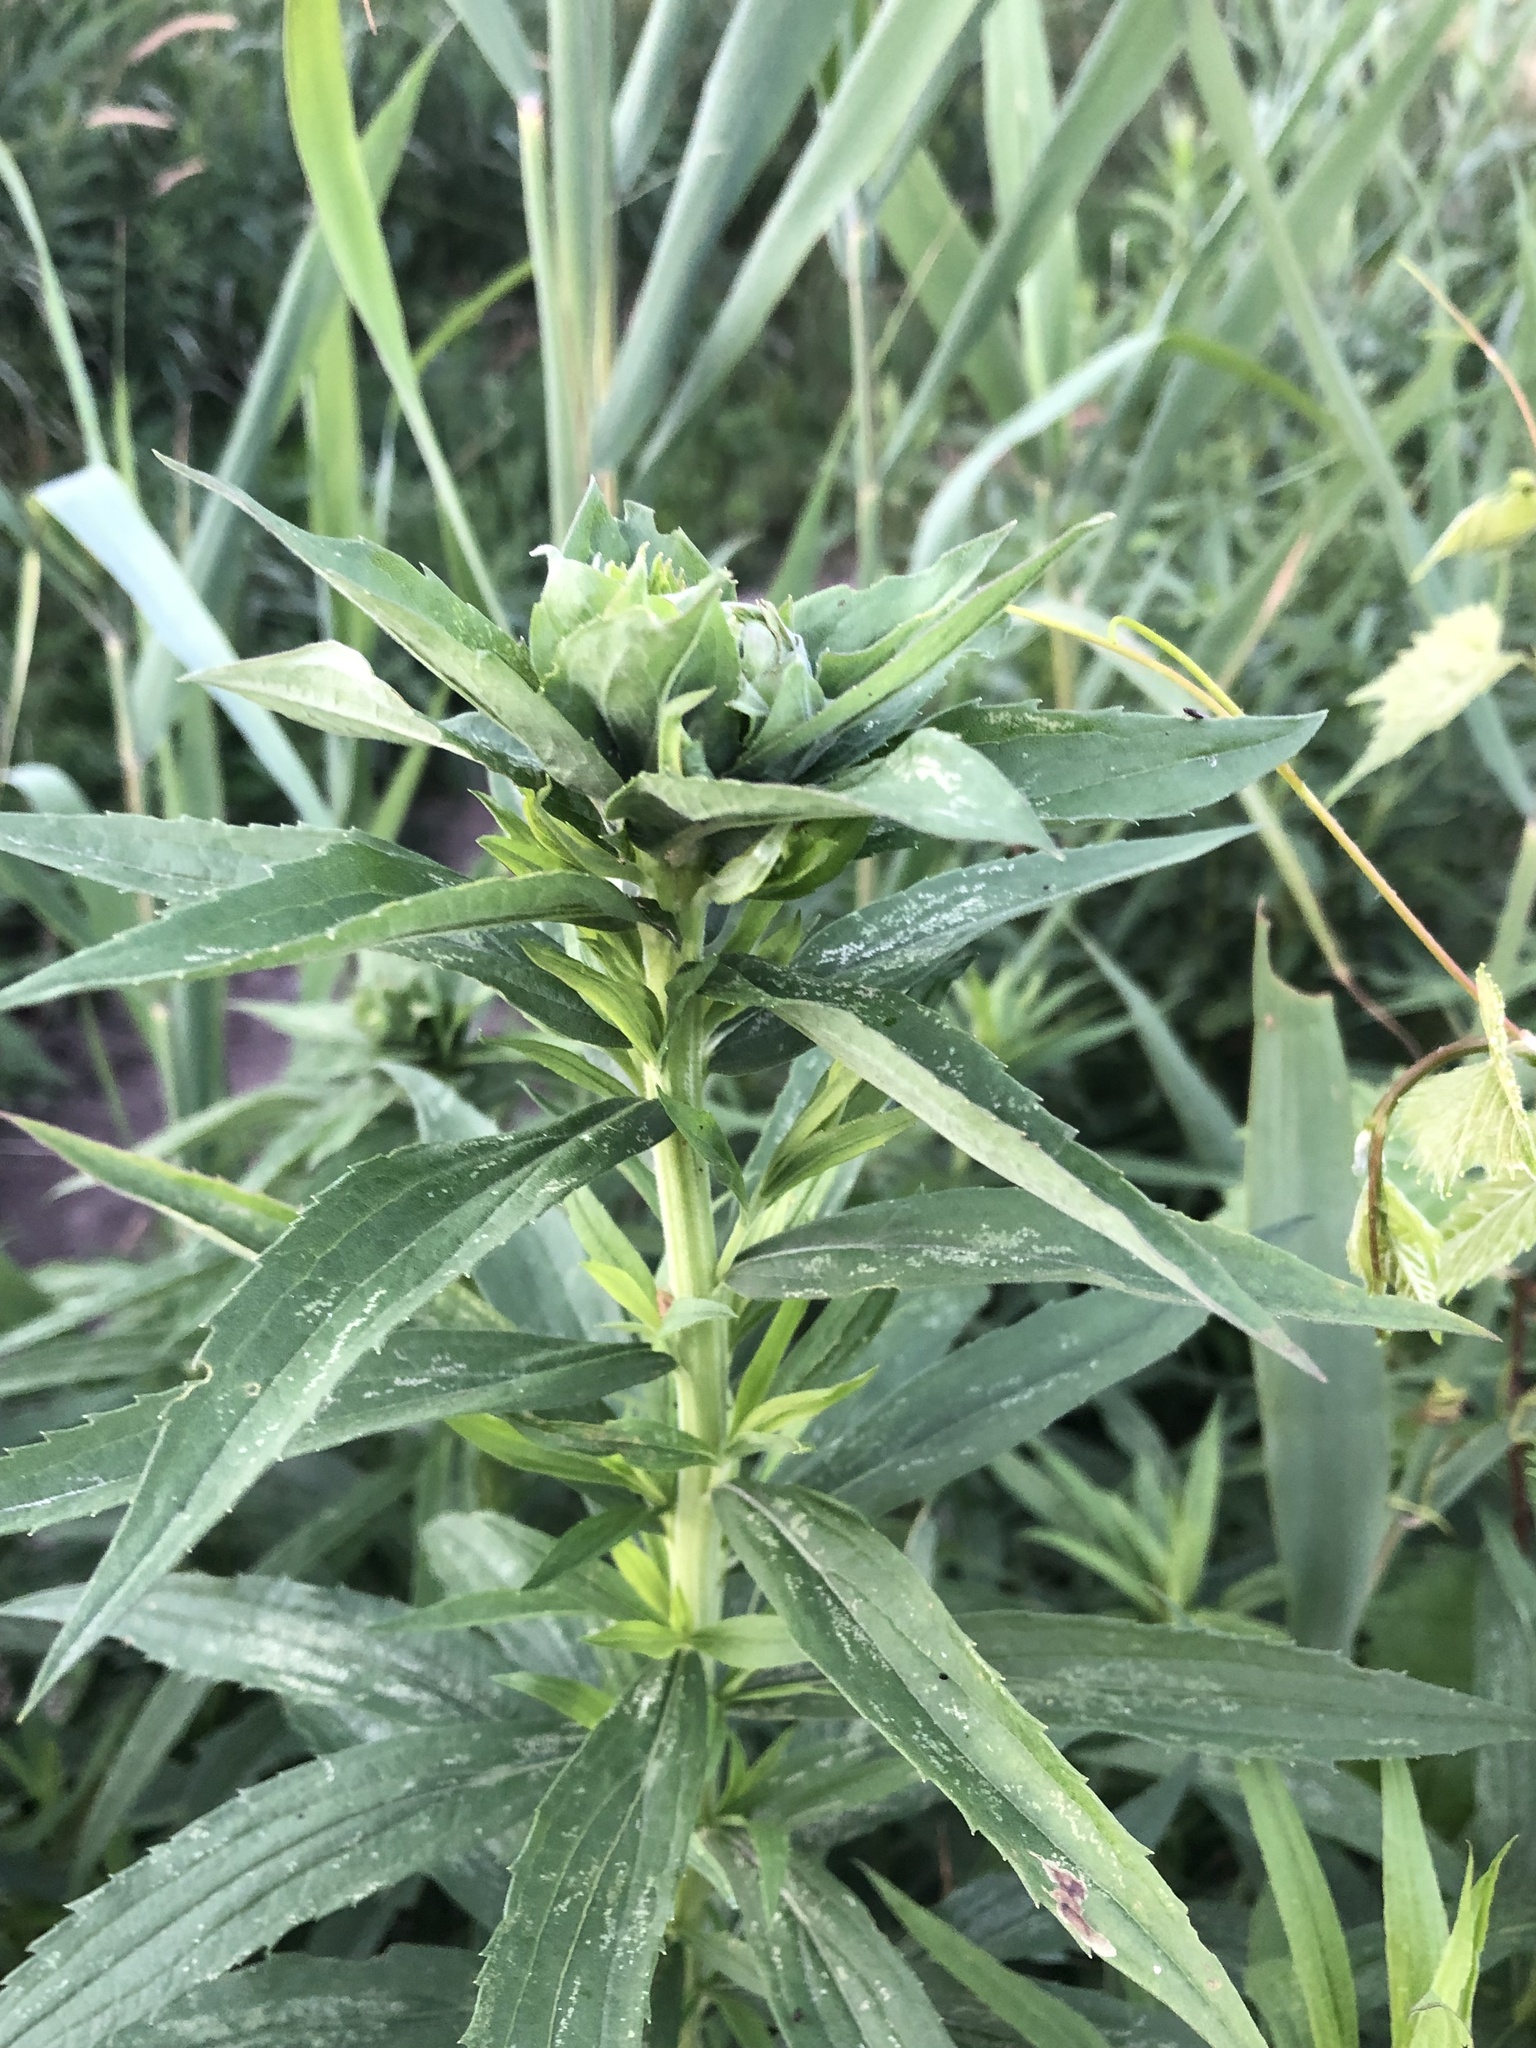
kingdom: Animalia
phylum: Arthropoda
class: Insecta
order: Diptera
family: Cecidomyiidae
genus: Rhopalomyia
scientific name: Rhopalomyia solidaginis
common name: Goldenrod bunch gall midge
